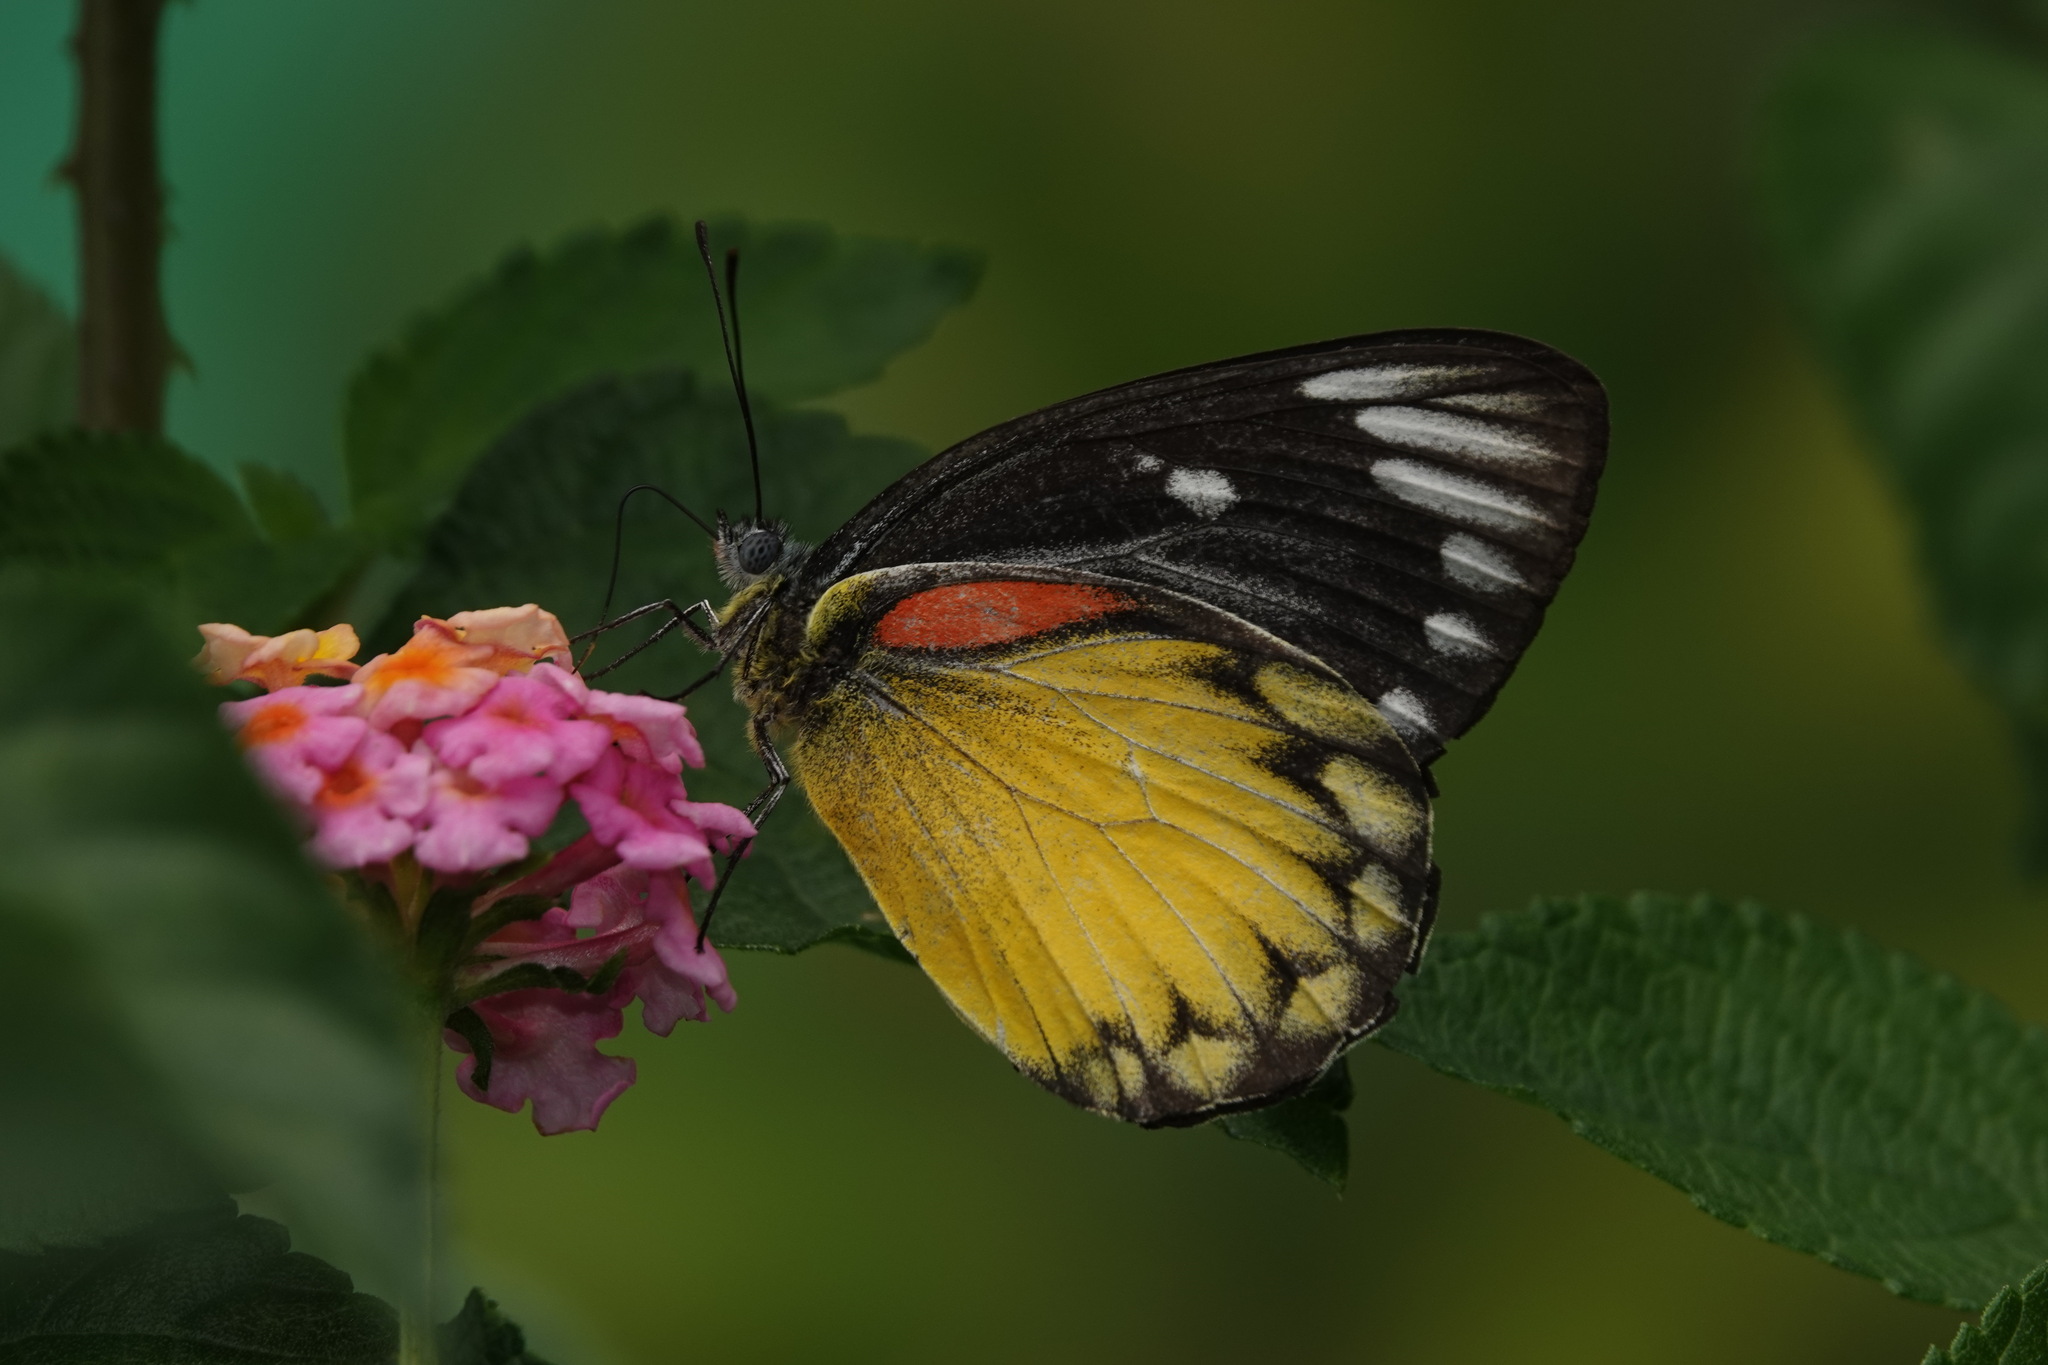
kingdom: Animalia
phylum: Arthropoda
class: Insecta
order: Lepidoptera
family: Pieridae
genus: Delias
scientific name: Delias descombesi
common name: Red-spot jezebel
